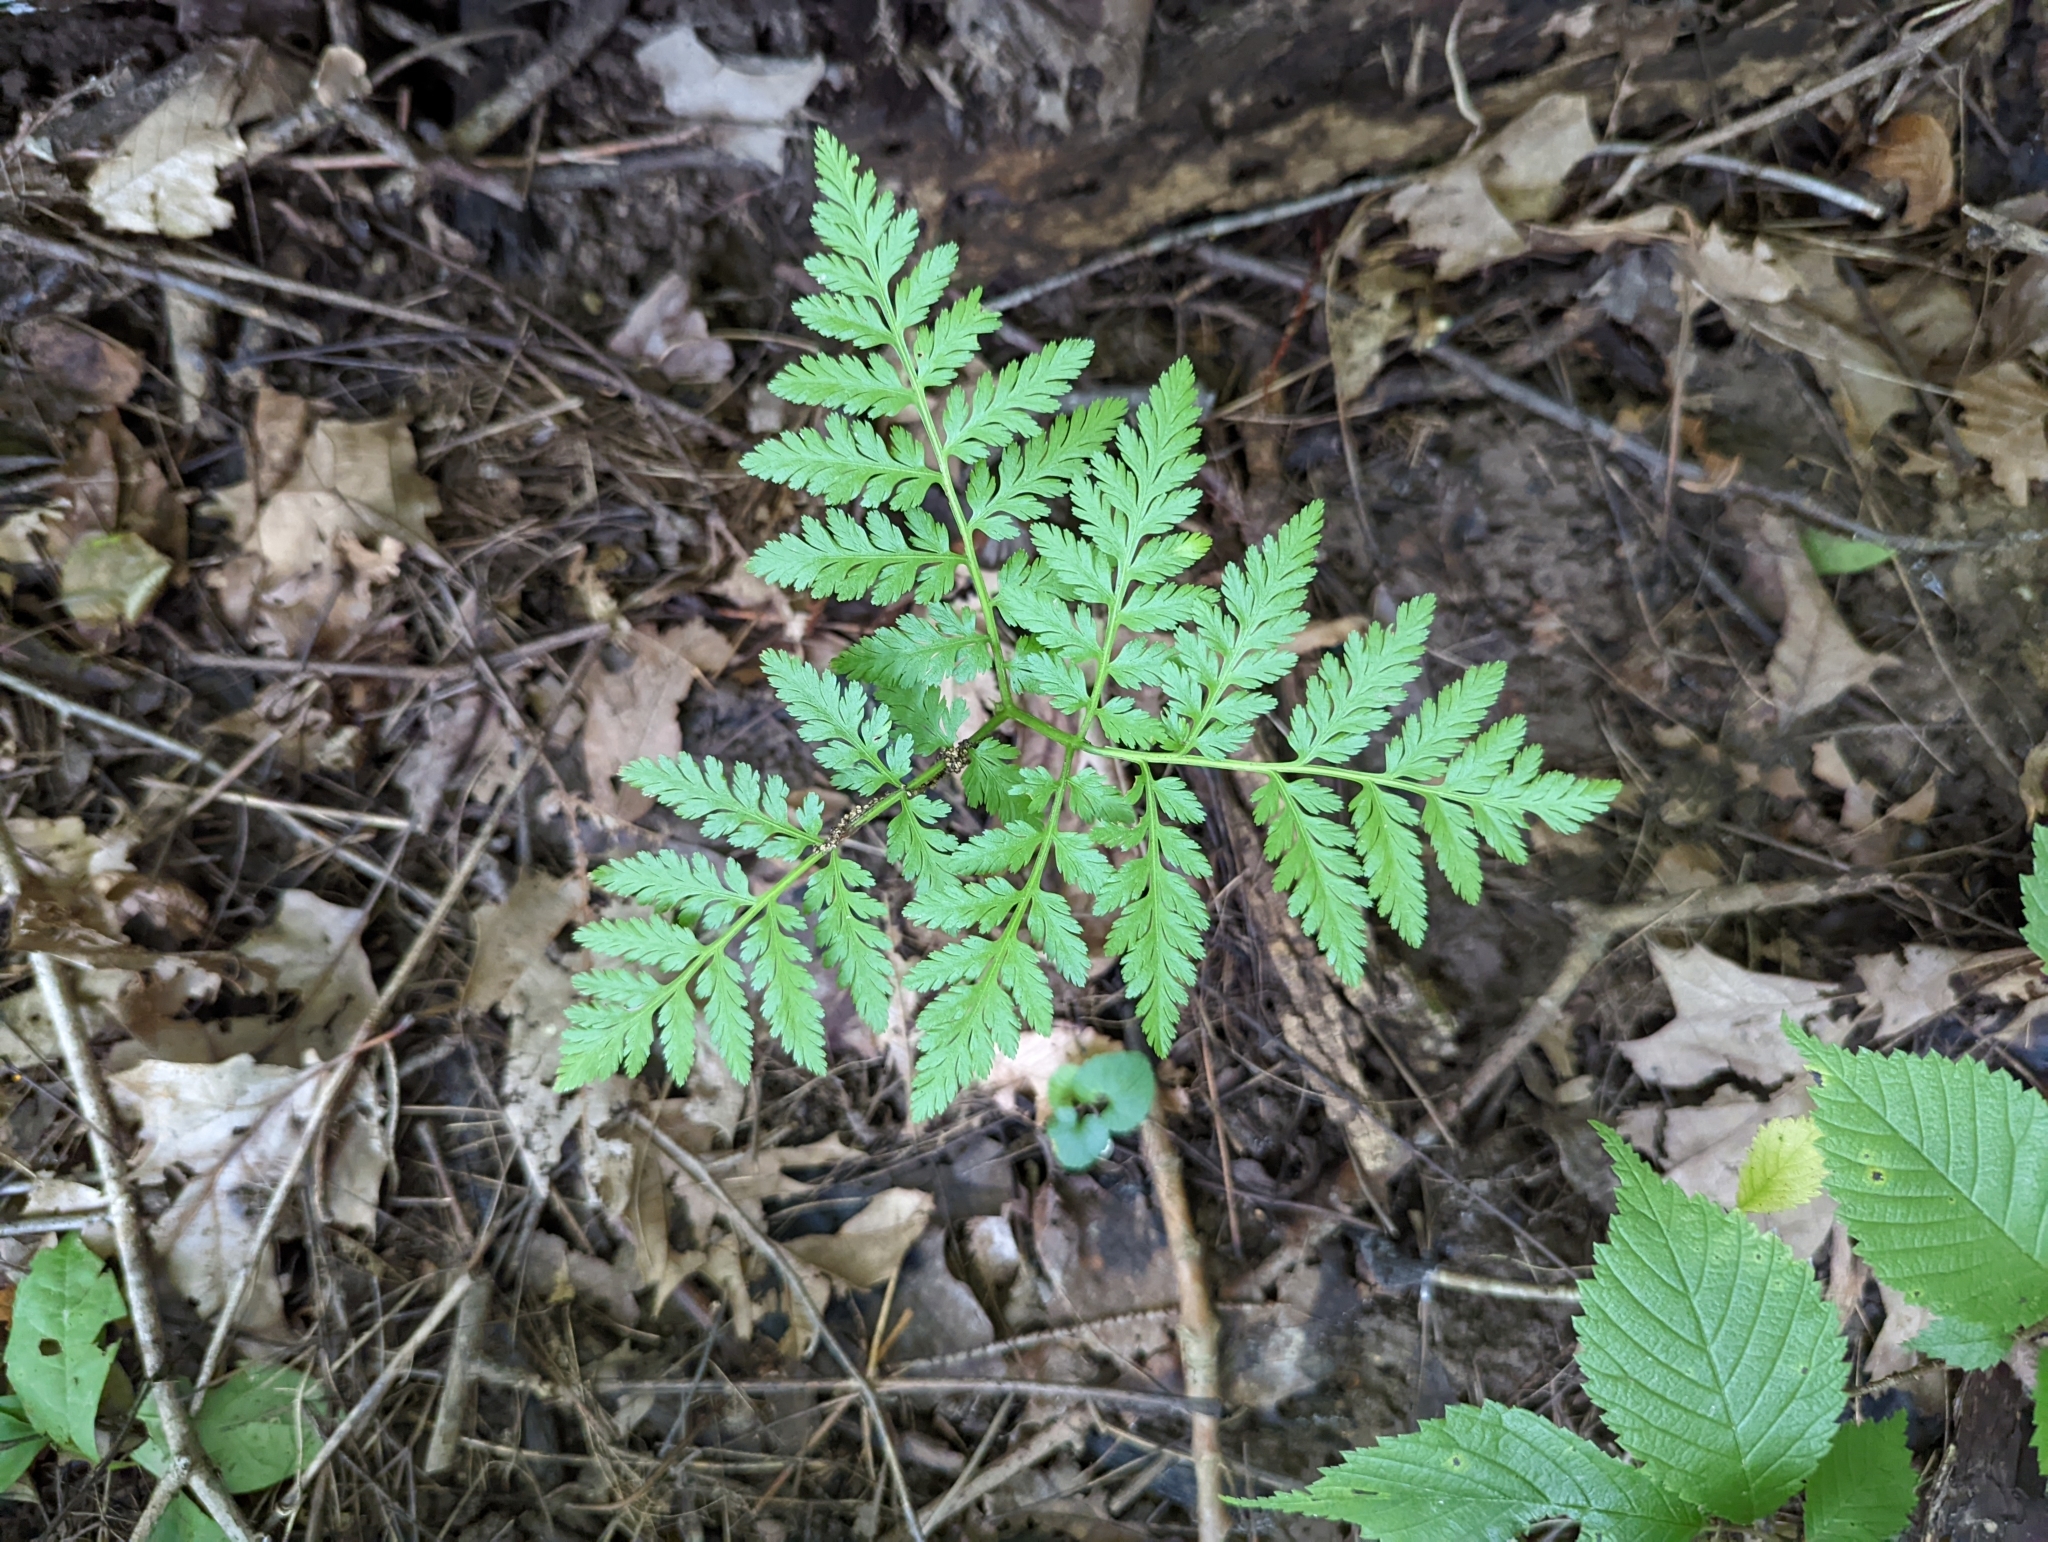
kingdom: Plantae
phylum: Tracheophyta
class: Polypodiopsida
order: Ophioglossales
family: Ophioglossaceae
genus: Botrypus
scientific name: Botrypus virginianus
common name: Common grapefern
